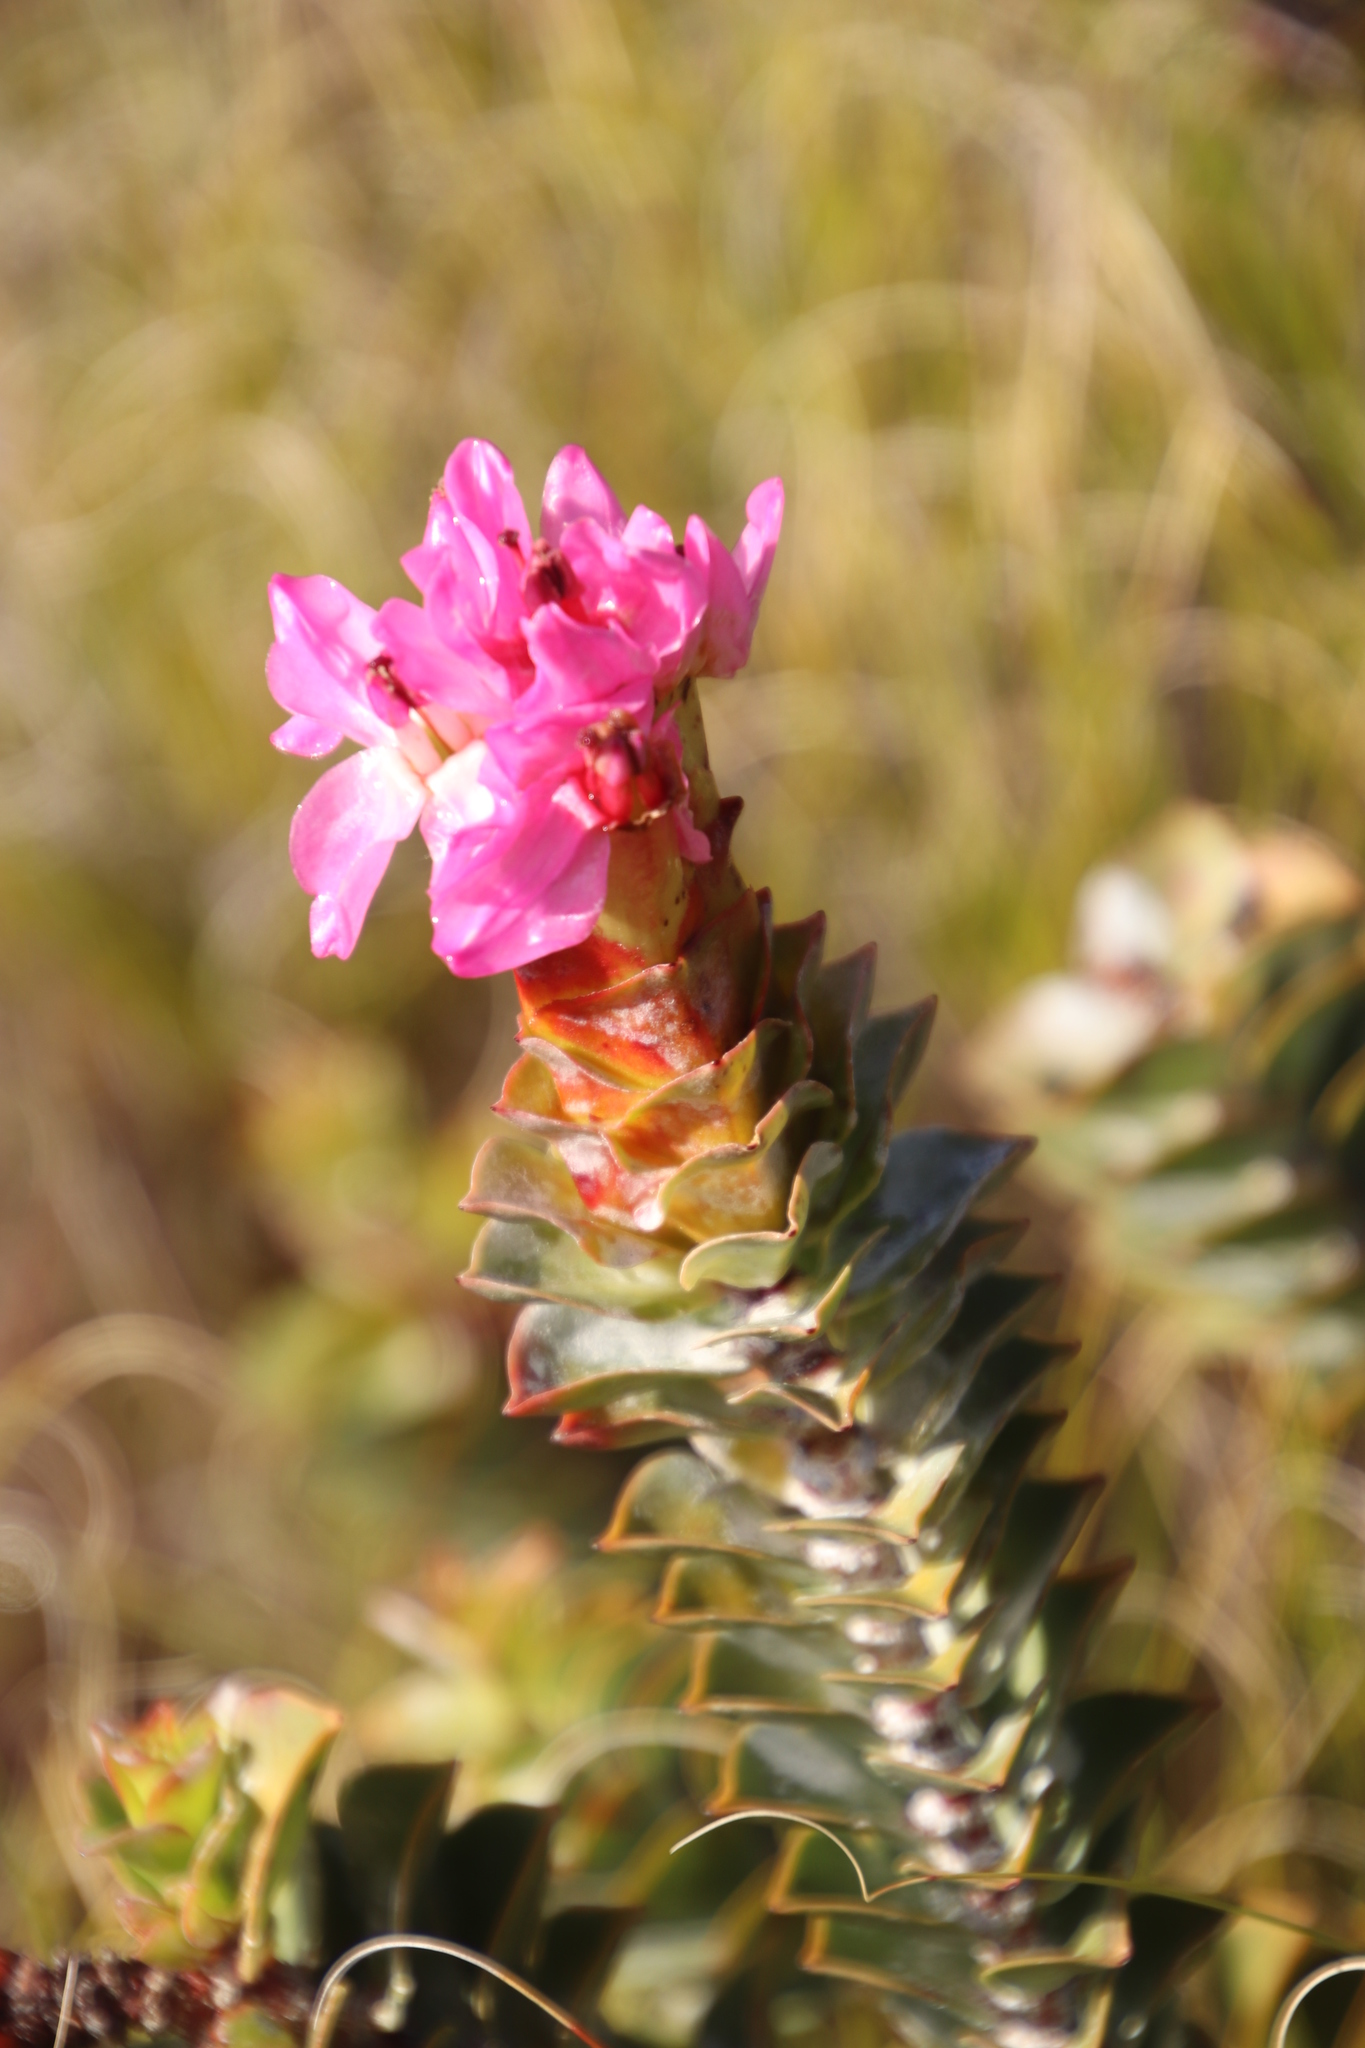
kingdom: Plantae
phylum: Tracheophyta
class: Magnoliopsida
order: Myrtales
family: Penaeaceae
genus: Saltera
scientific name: Saltera sarcocolla
